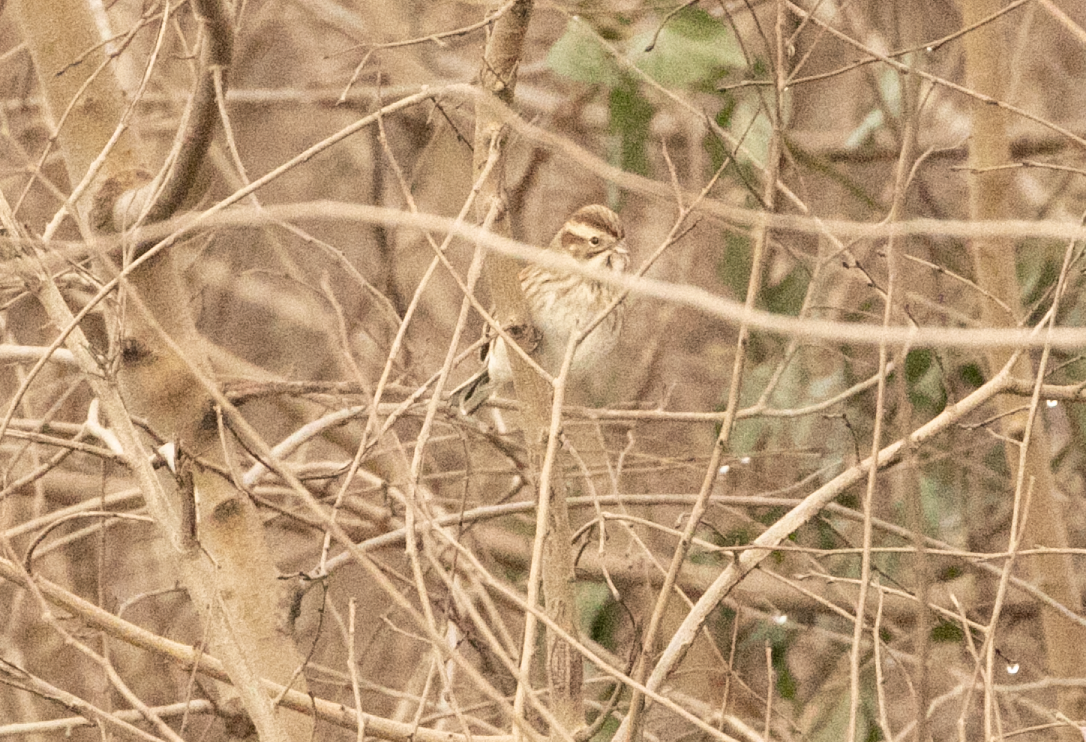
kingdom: Animalia
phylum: Chordata
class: Aves
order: Passeriformes
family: Emberizidae
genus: Emberiza
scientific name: Emberiza schoeniclus
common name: Reed bunting
